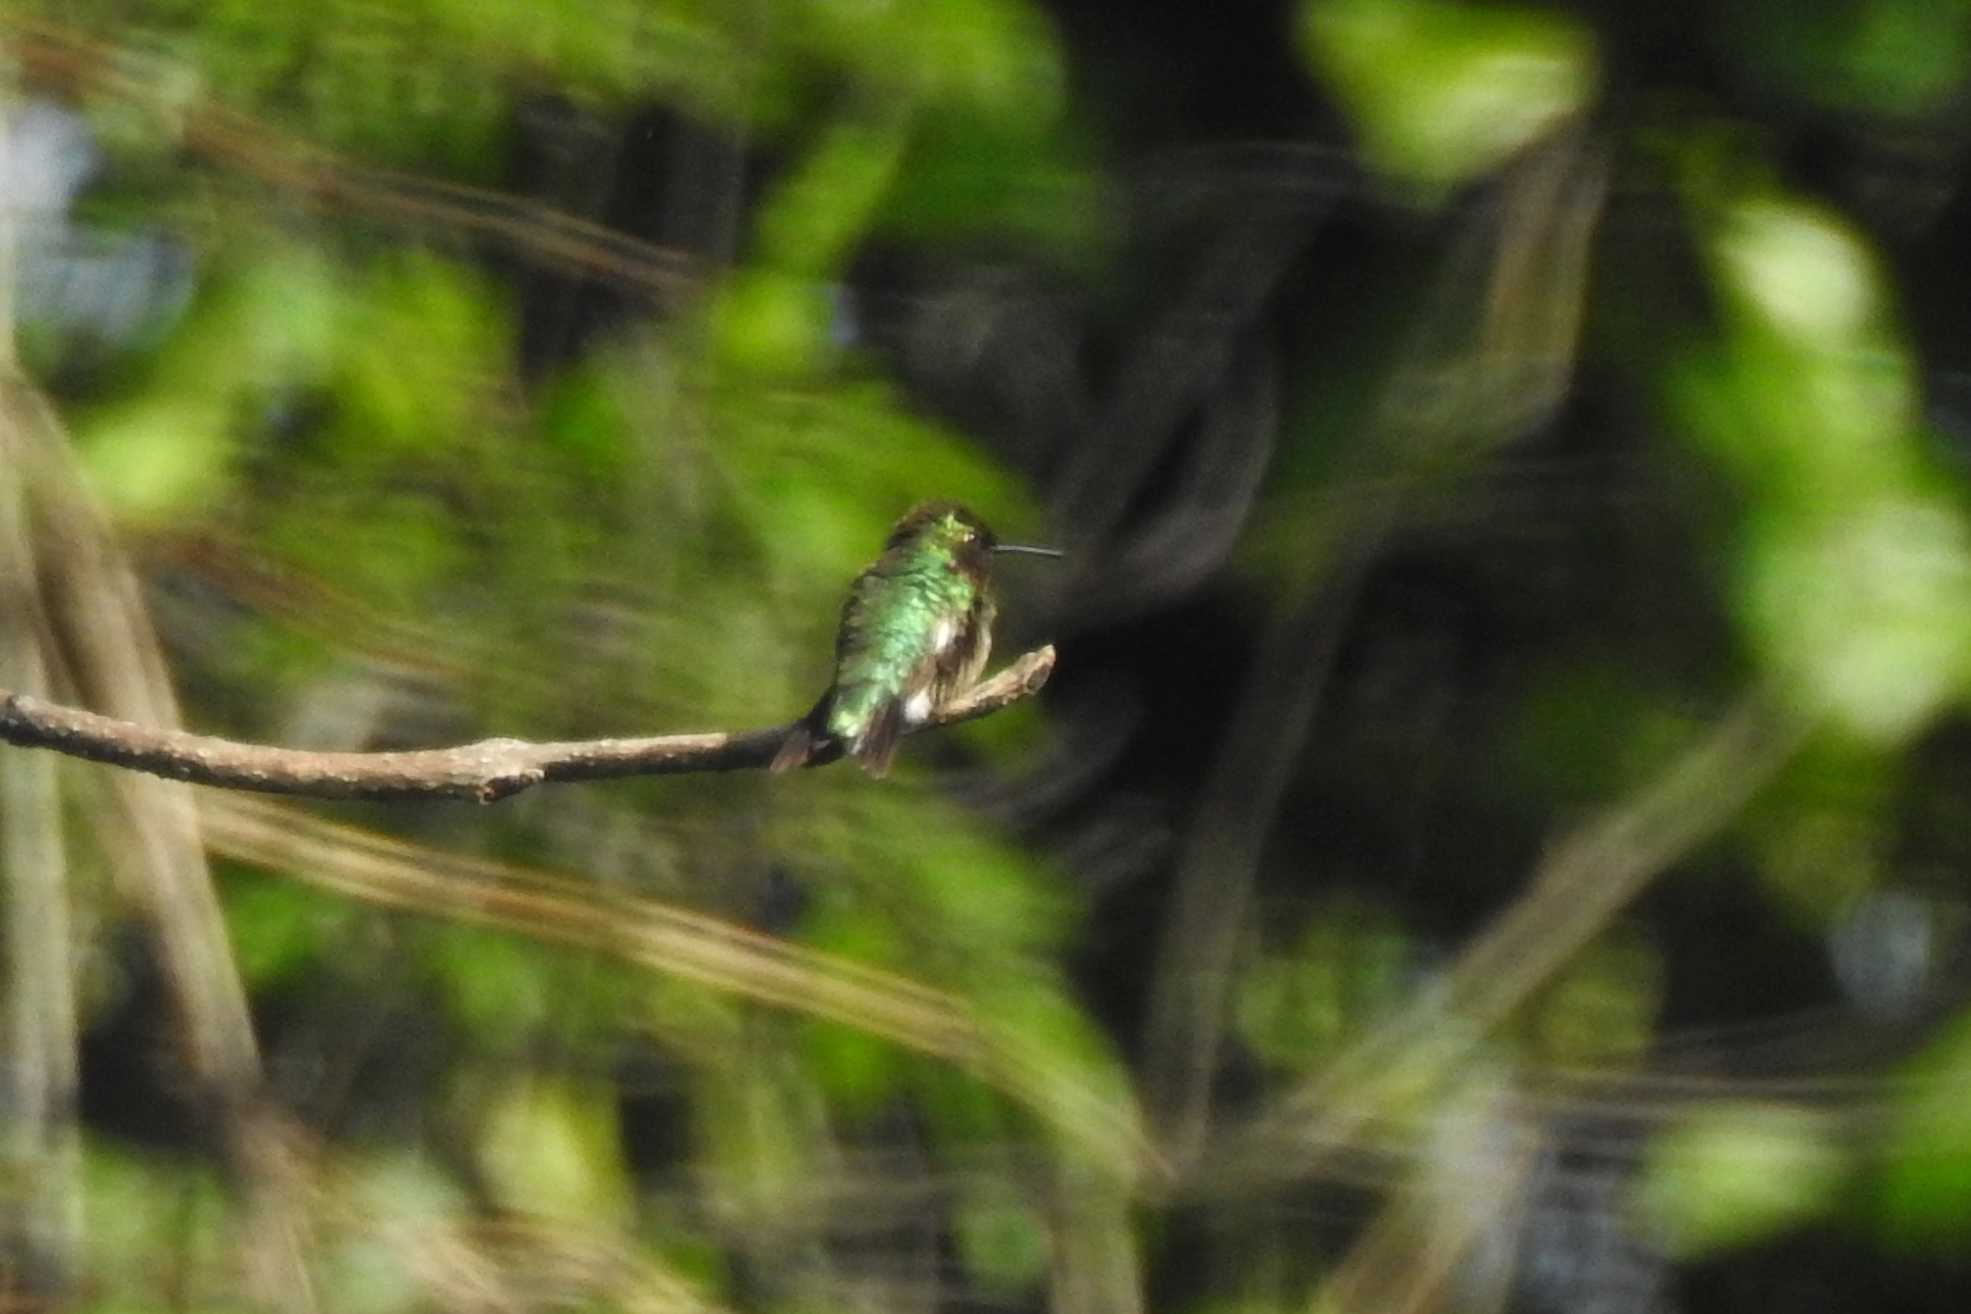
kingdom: Animalia
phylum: Chordata
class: Aves
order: Apodiformes
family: Trochilidae
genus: Archilochus
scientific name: Archilochus colubris
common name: Ruby-throated hummingbird
